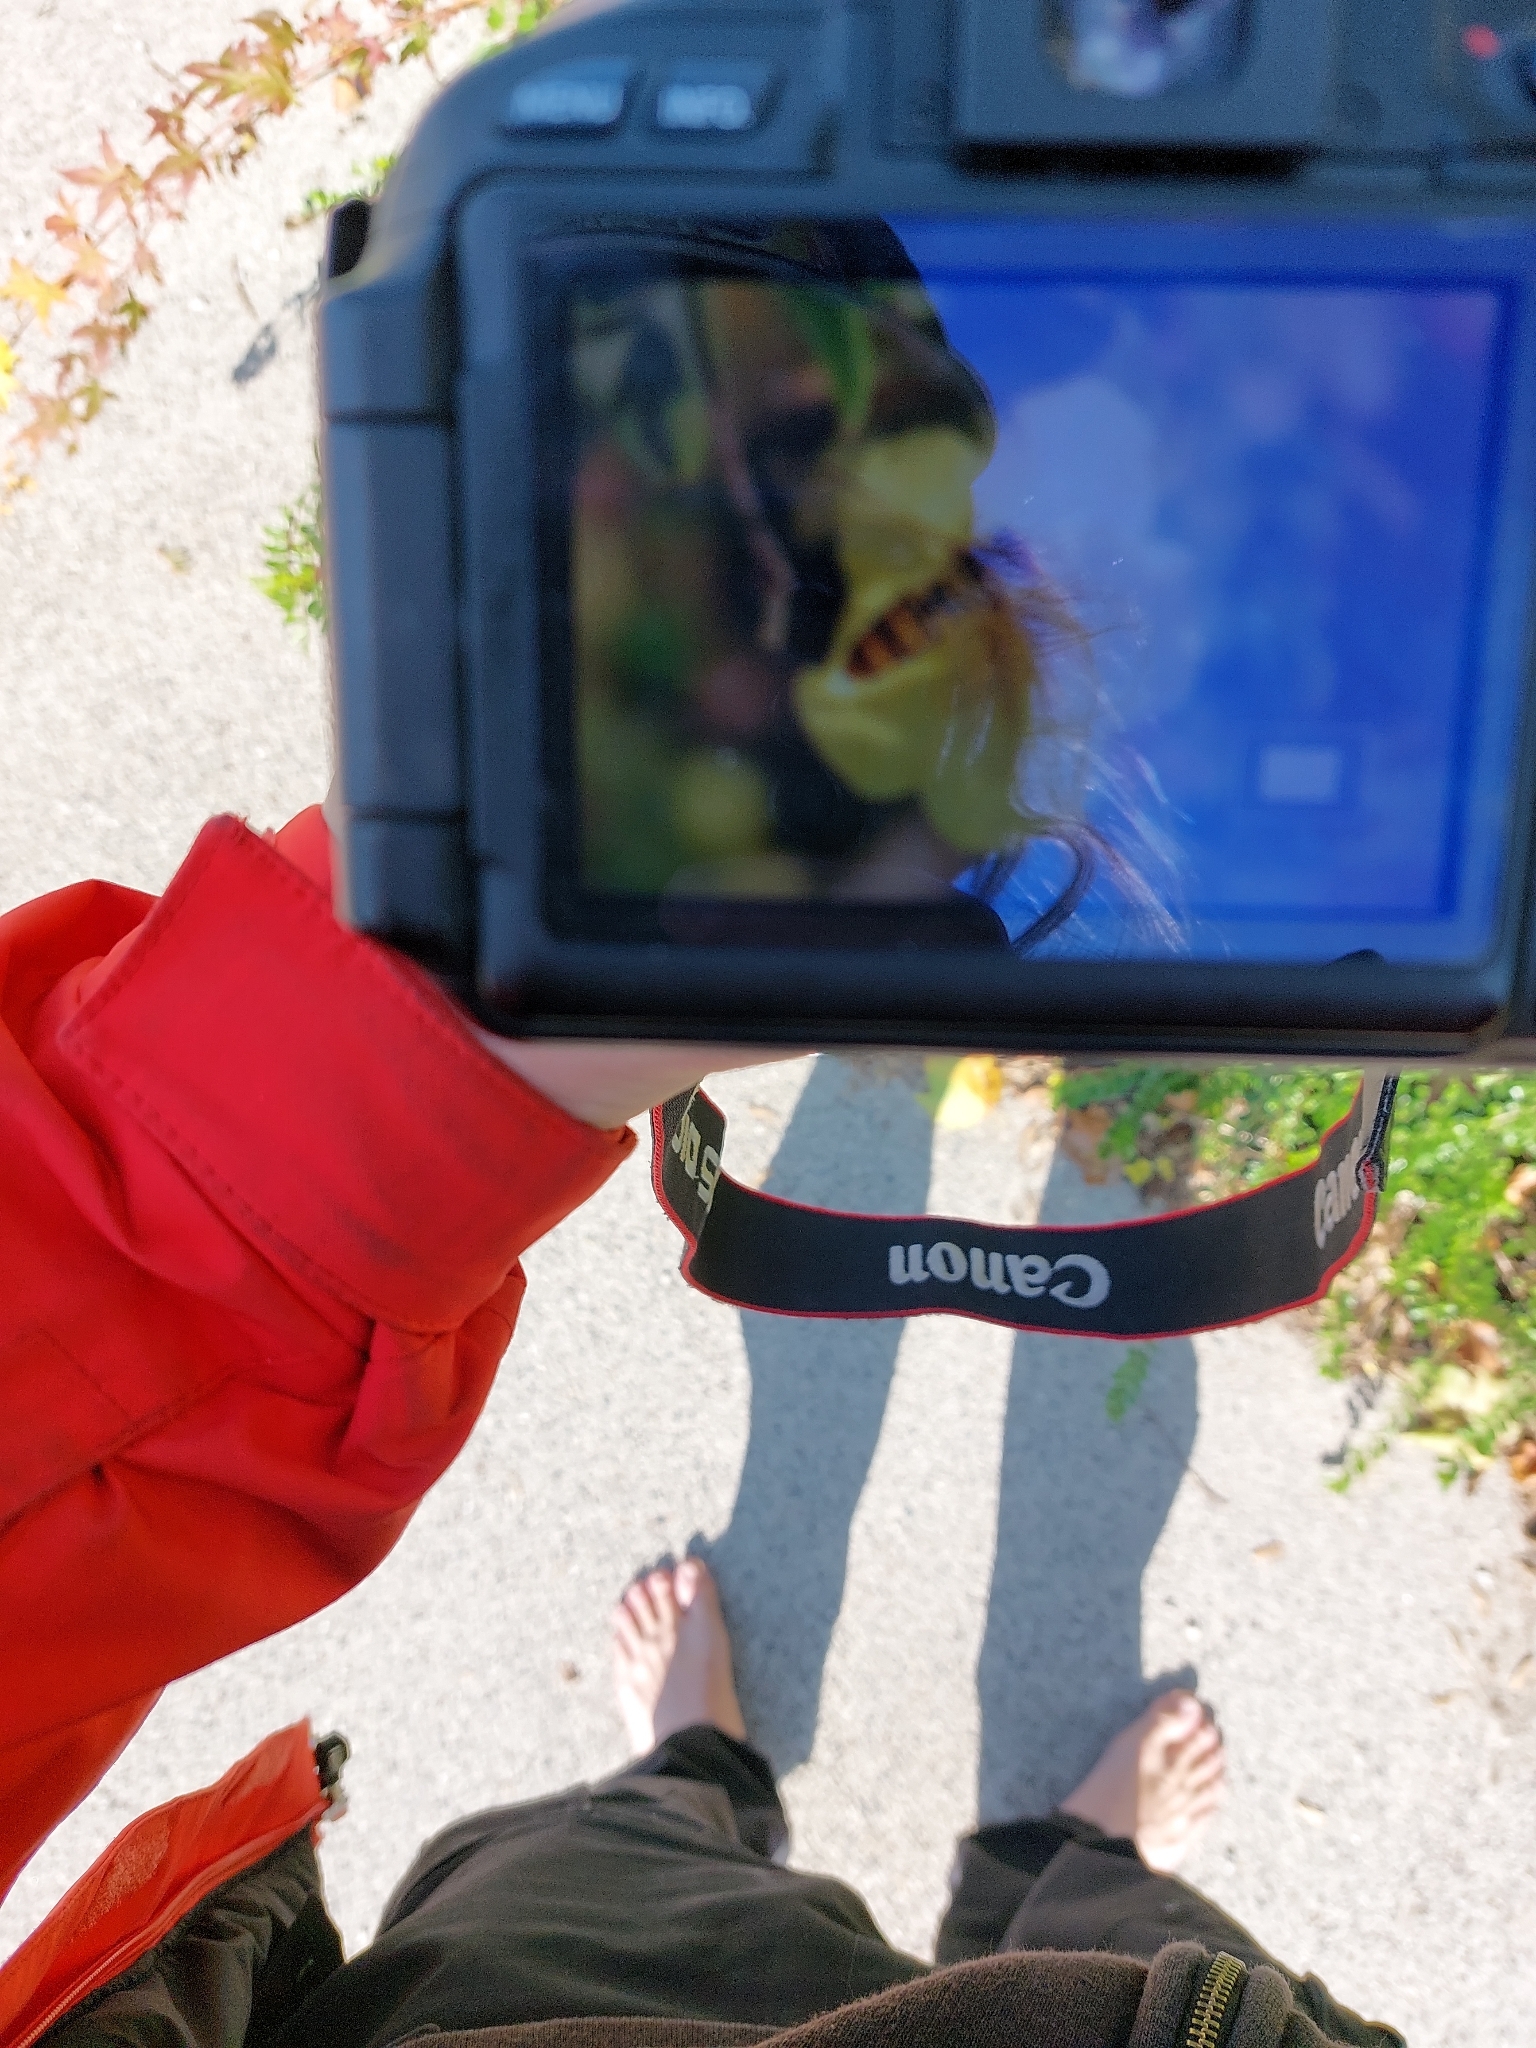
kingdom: Animalia
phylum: Arthropoda
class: Insecta
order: Diptera
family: Syrphidae
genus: Episyrphus
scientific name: Episyrphus balteatus
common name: Marmalade hoverfly
